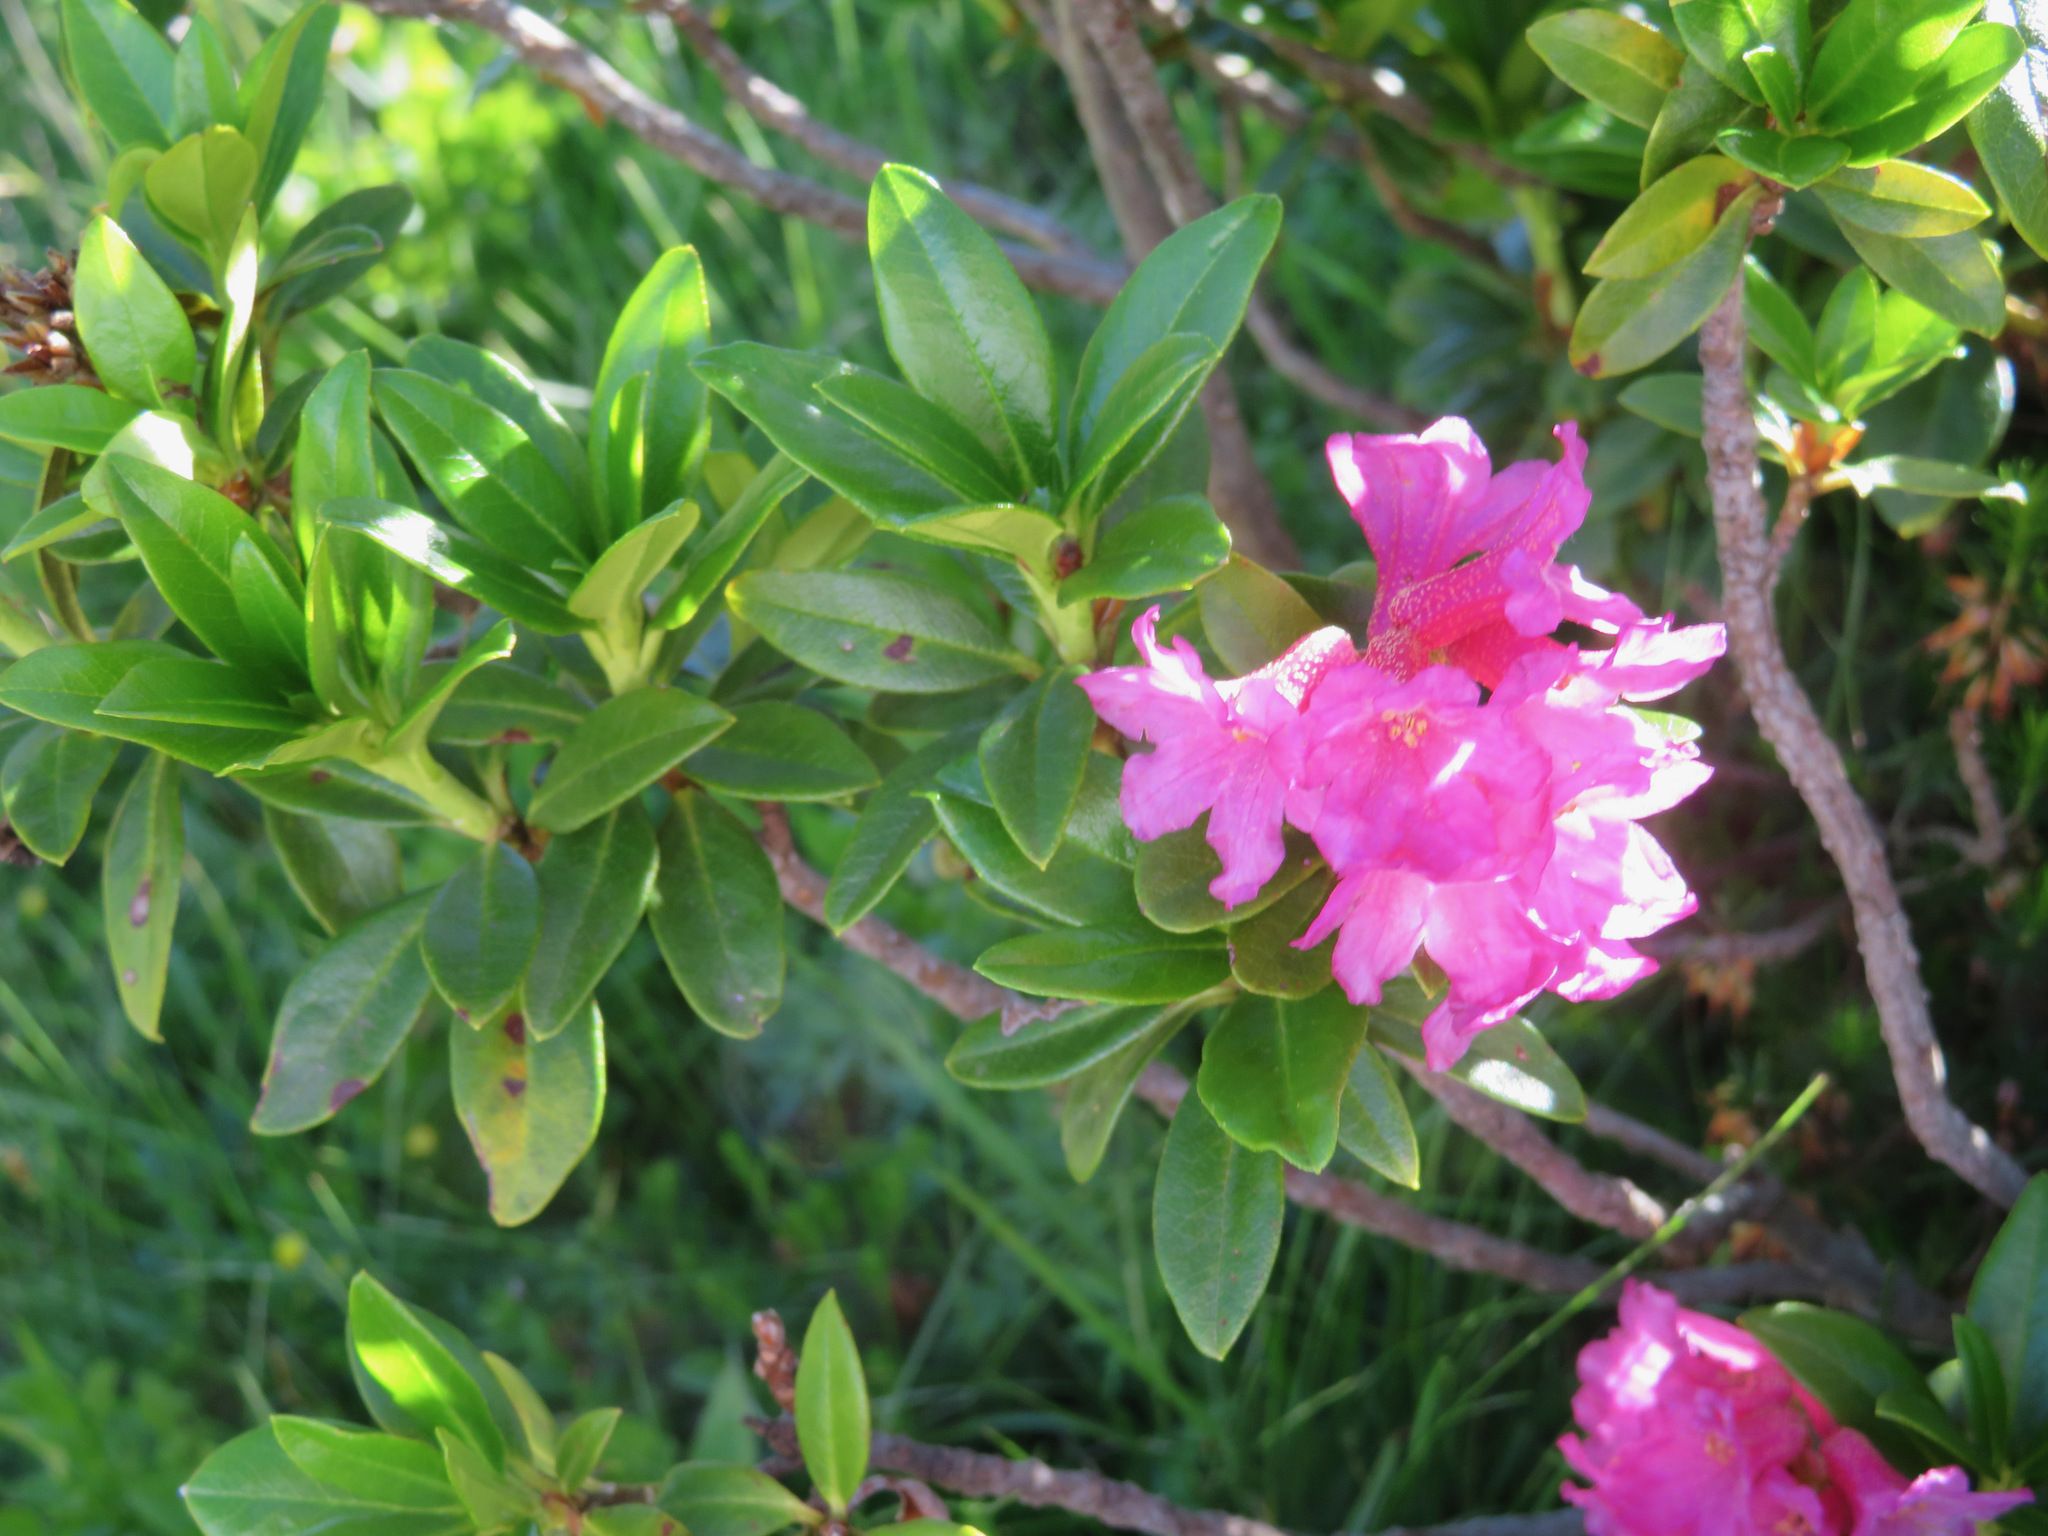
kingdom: Plantae
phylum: Tracheophyta
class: Magnoliopsida
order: Ericales
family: Ericaceae
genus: Rhododendron
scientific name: Rhododendron ferrugineum
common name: Alpenrose
